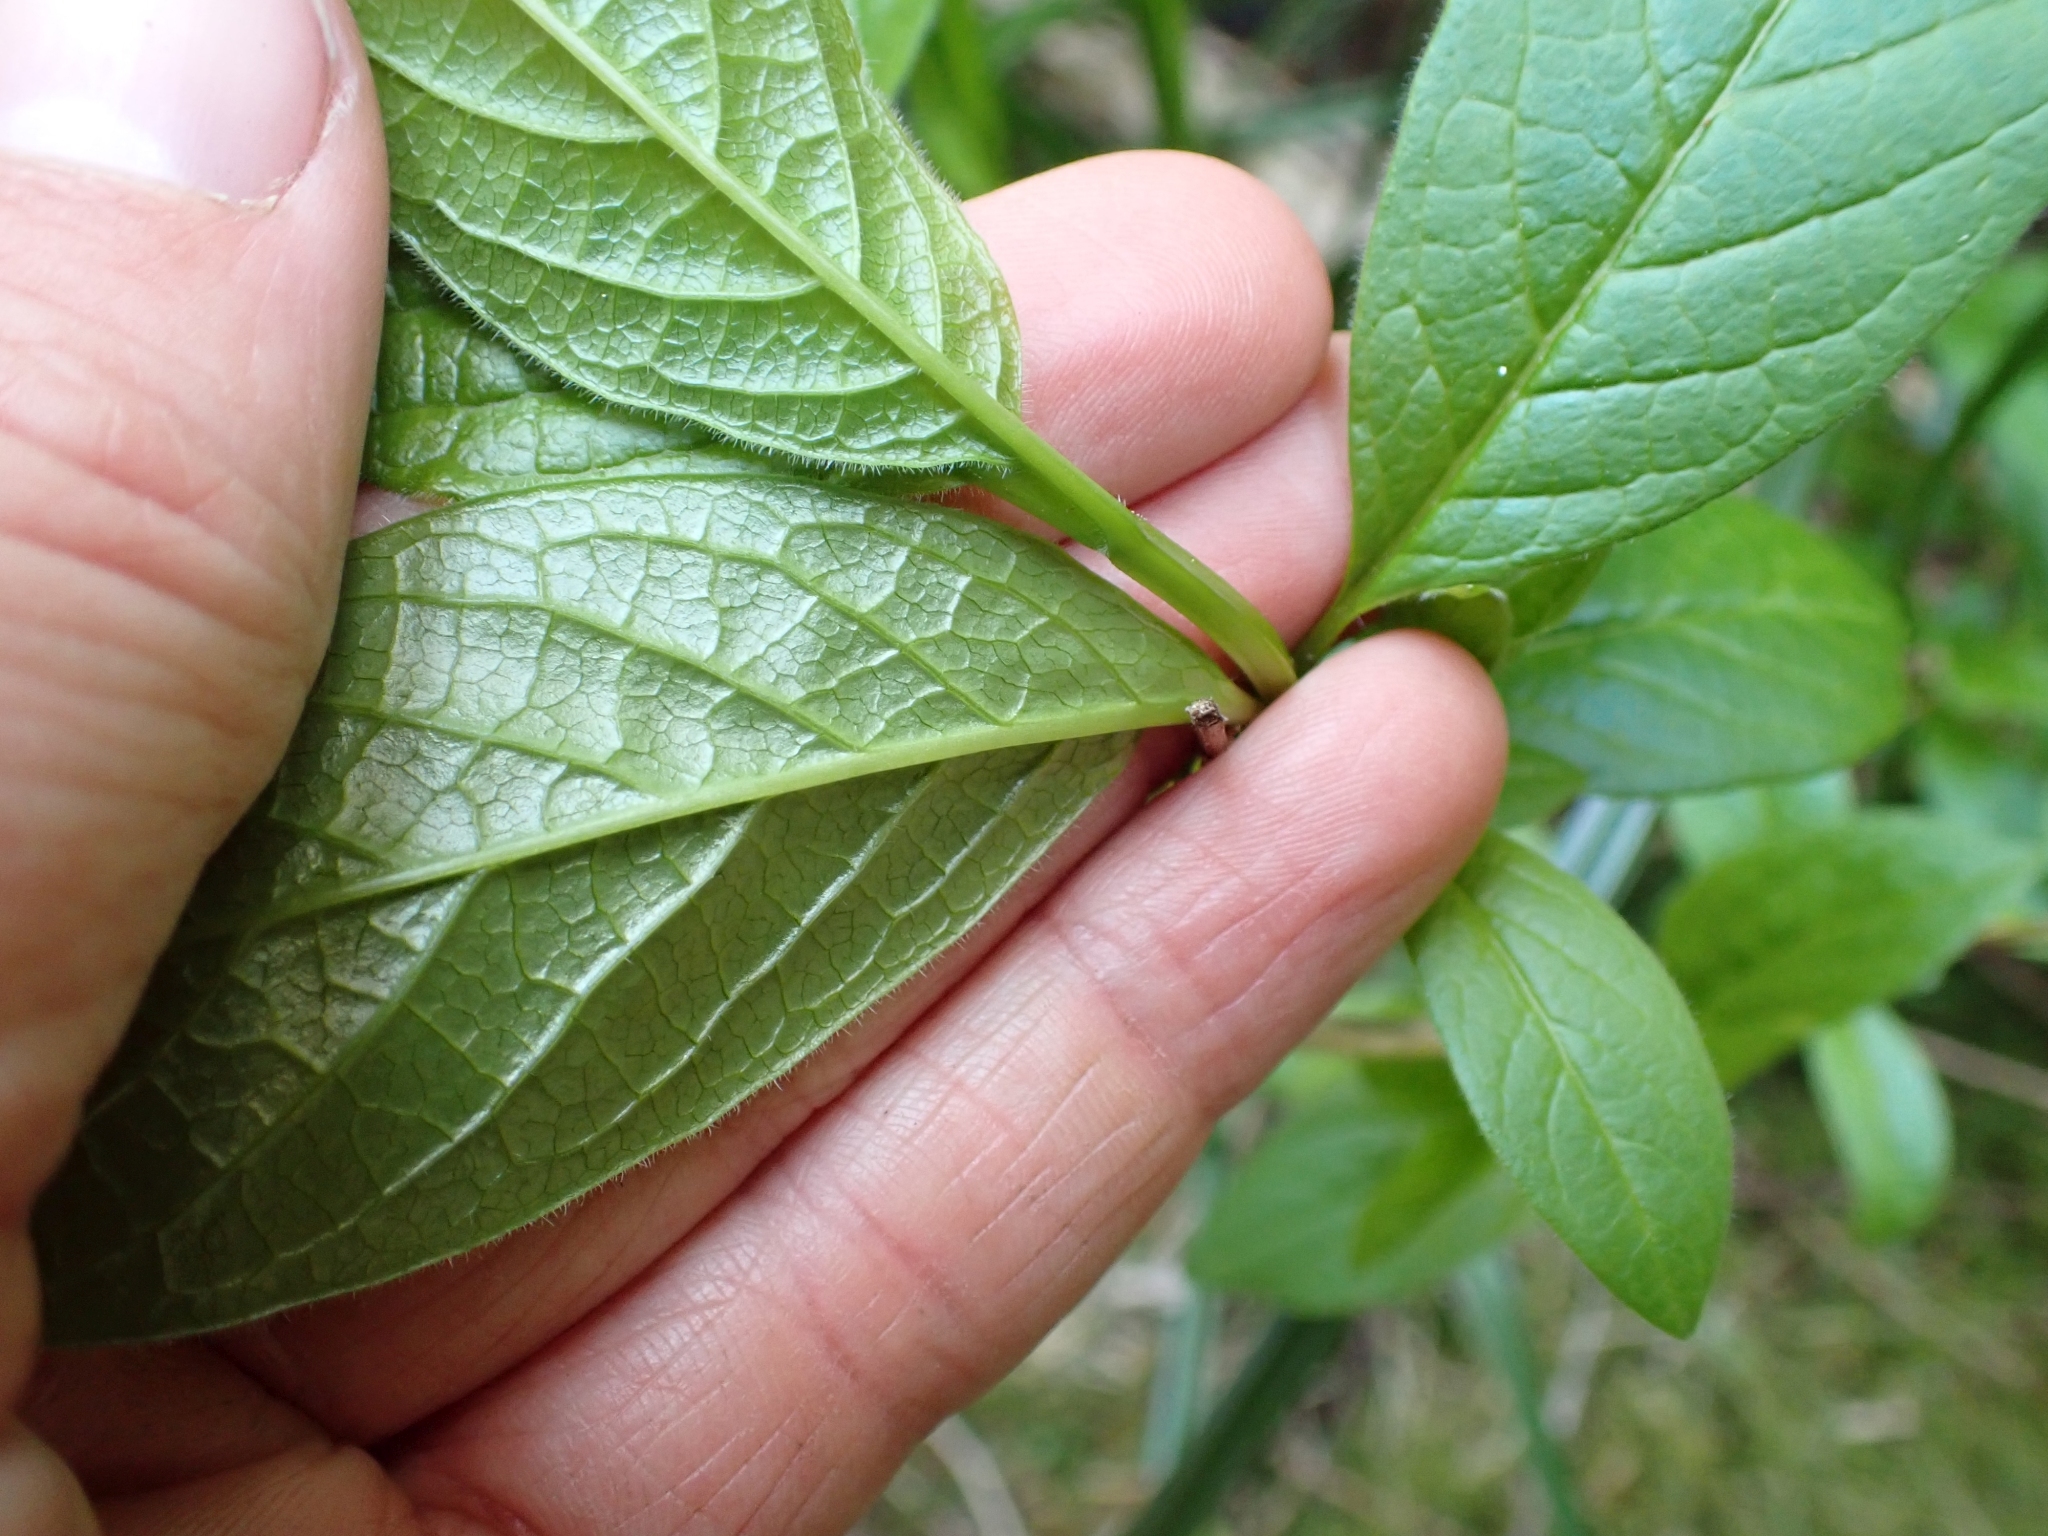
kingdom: Plantae
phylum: Tracheophyta
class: Magnoliopsida
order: Dipsacales
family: Caprifoliaceae
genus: Lonicera
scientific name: Lonicera involucrata
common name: Californian honeysuckle
